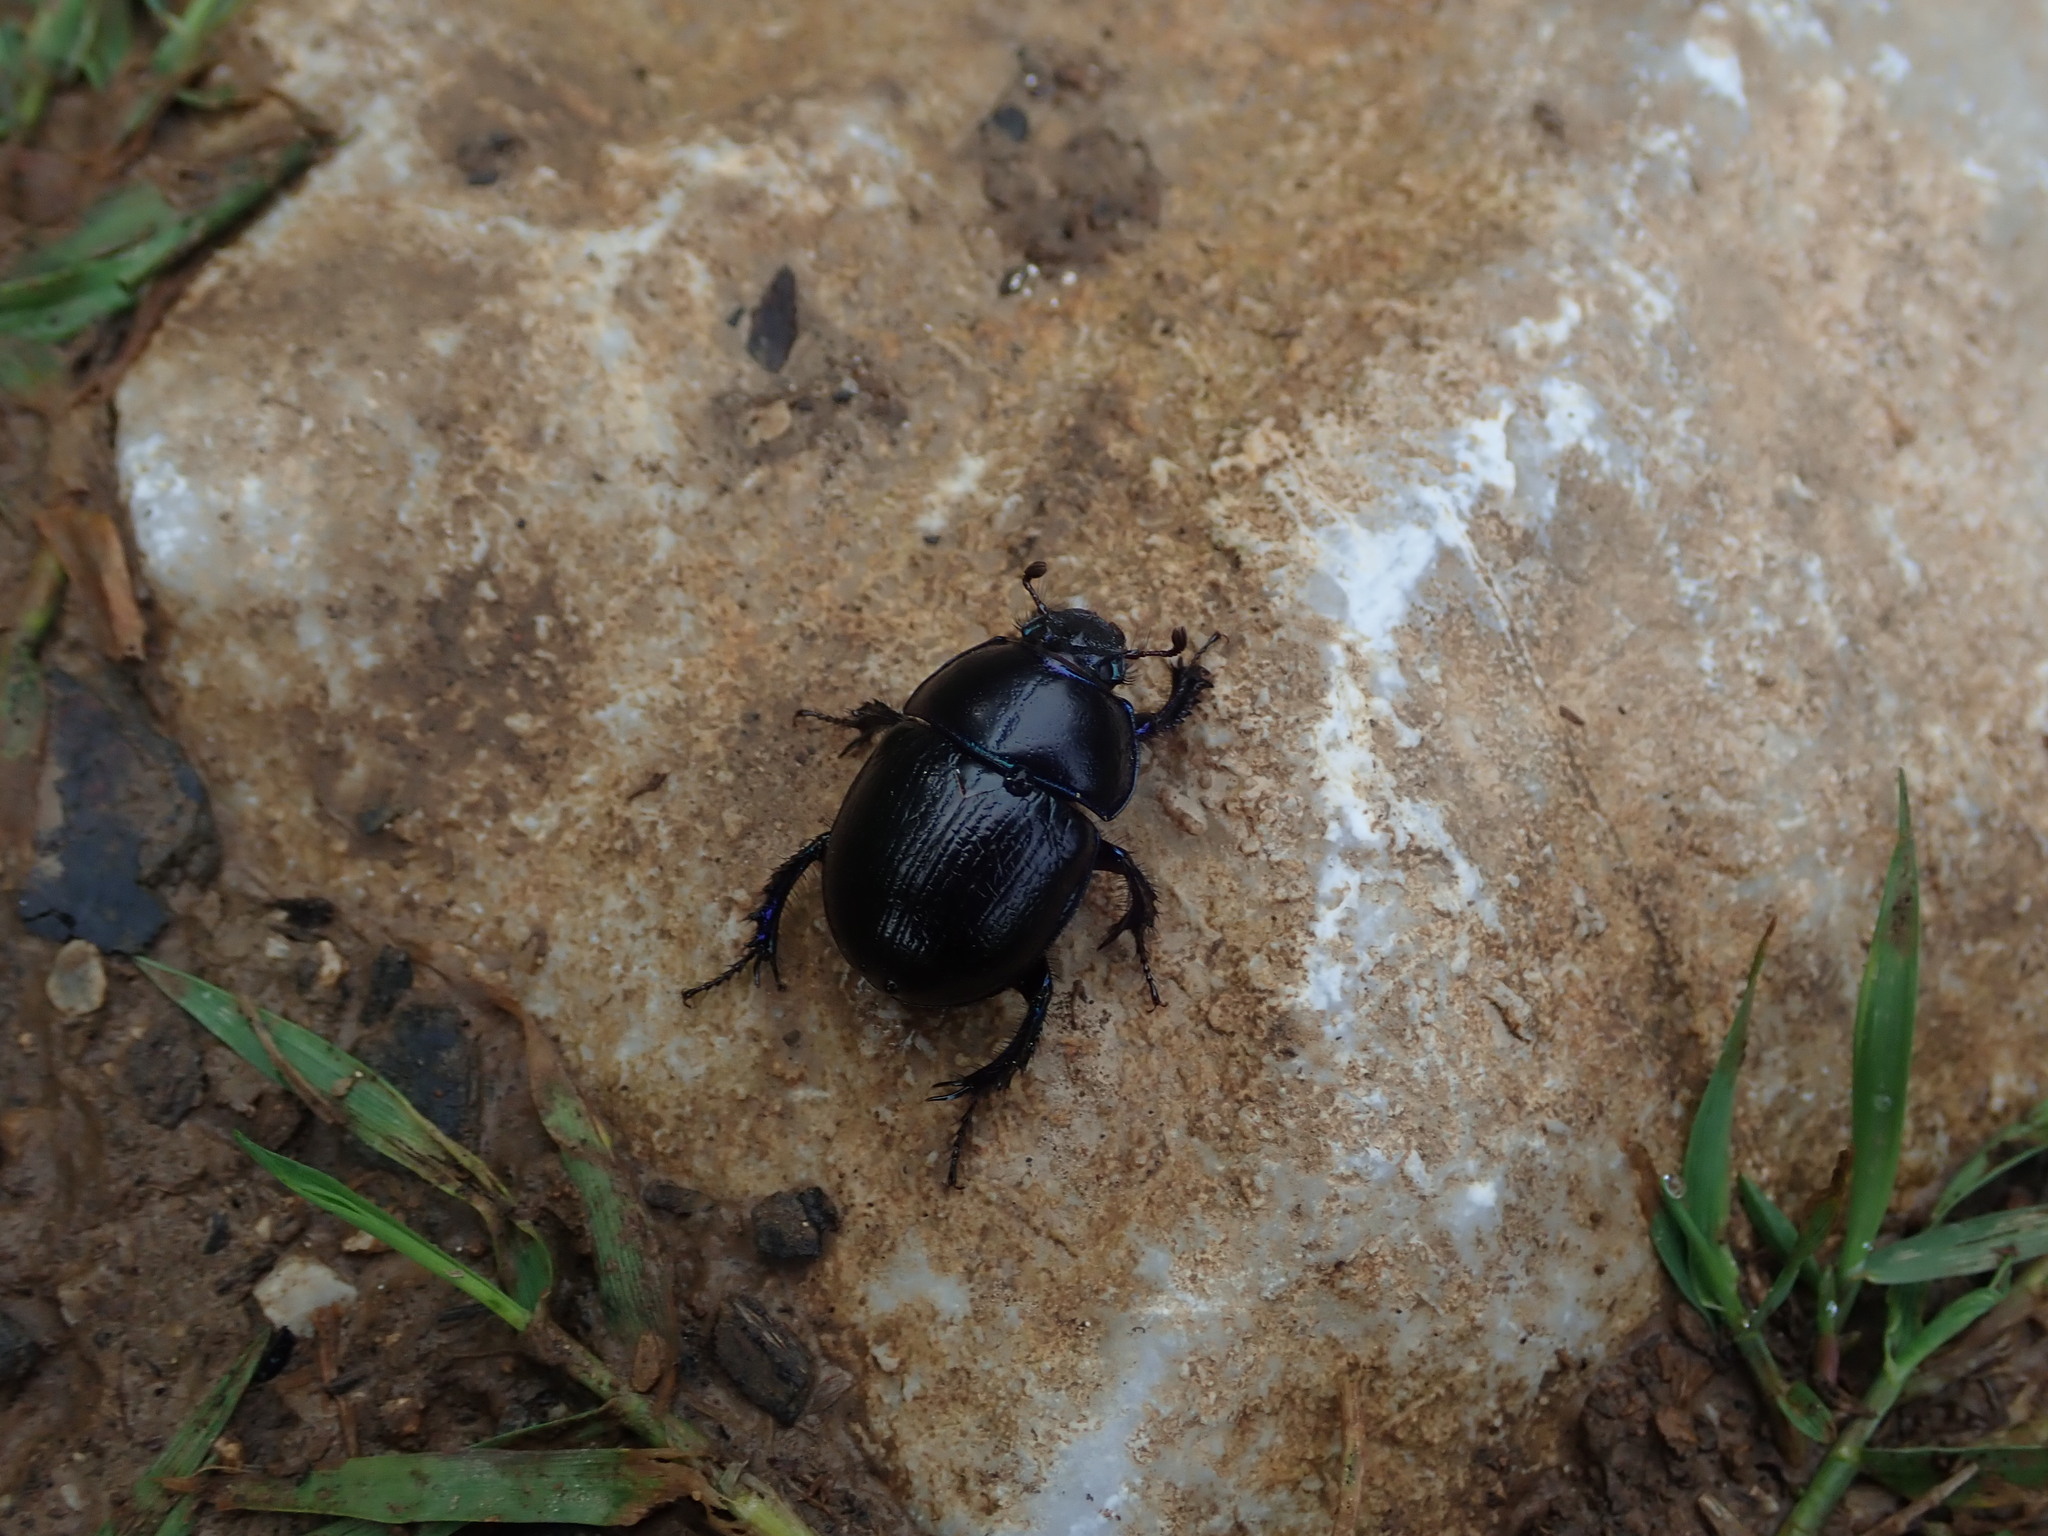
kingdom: Animalia
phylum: Arthropoda
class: Insecta
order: Coleoptera
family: Geotrupidae
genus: Anoplotrupes
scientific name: Anoplotrupes stercorosus
